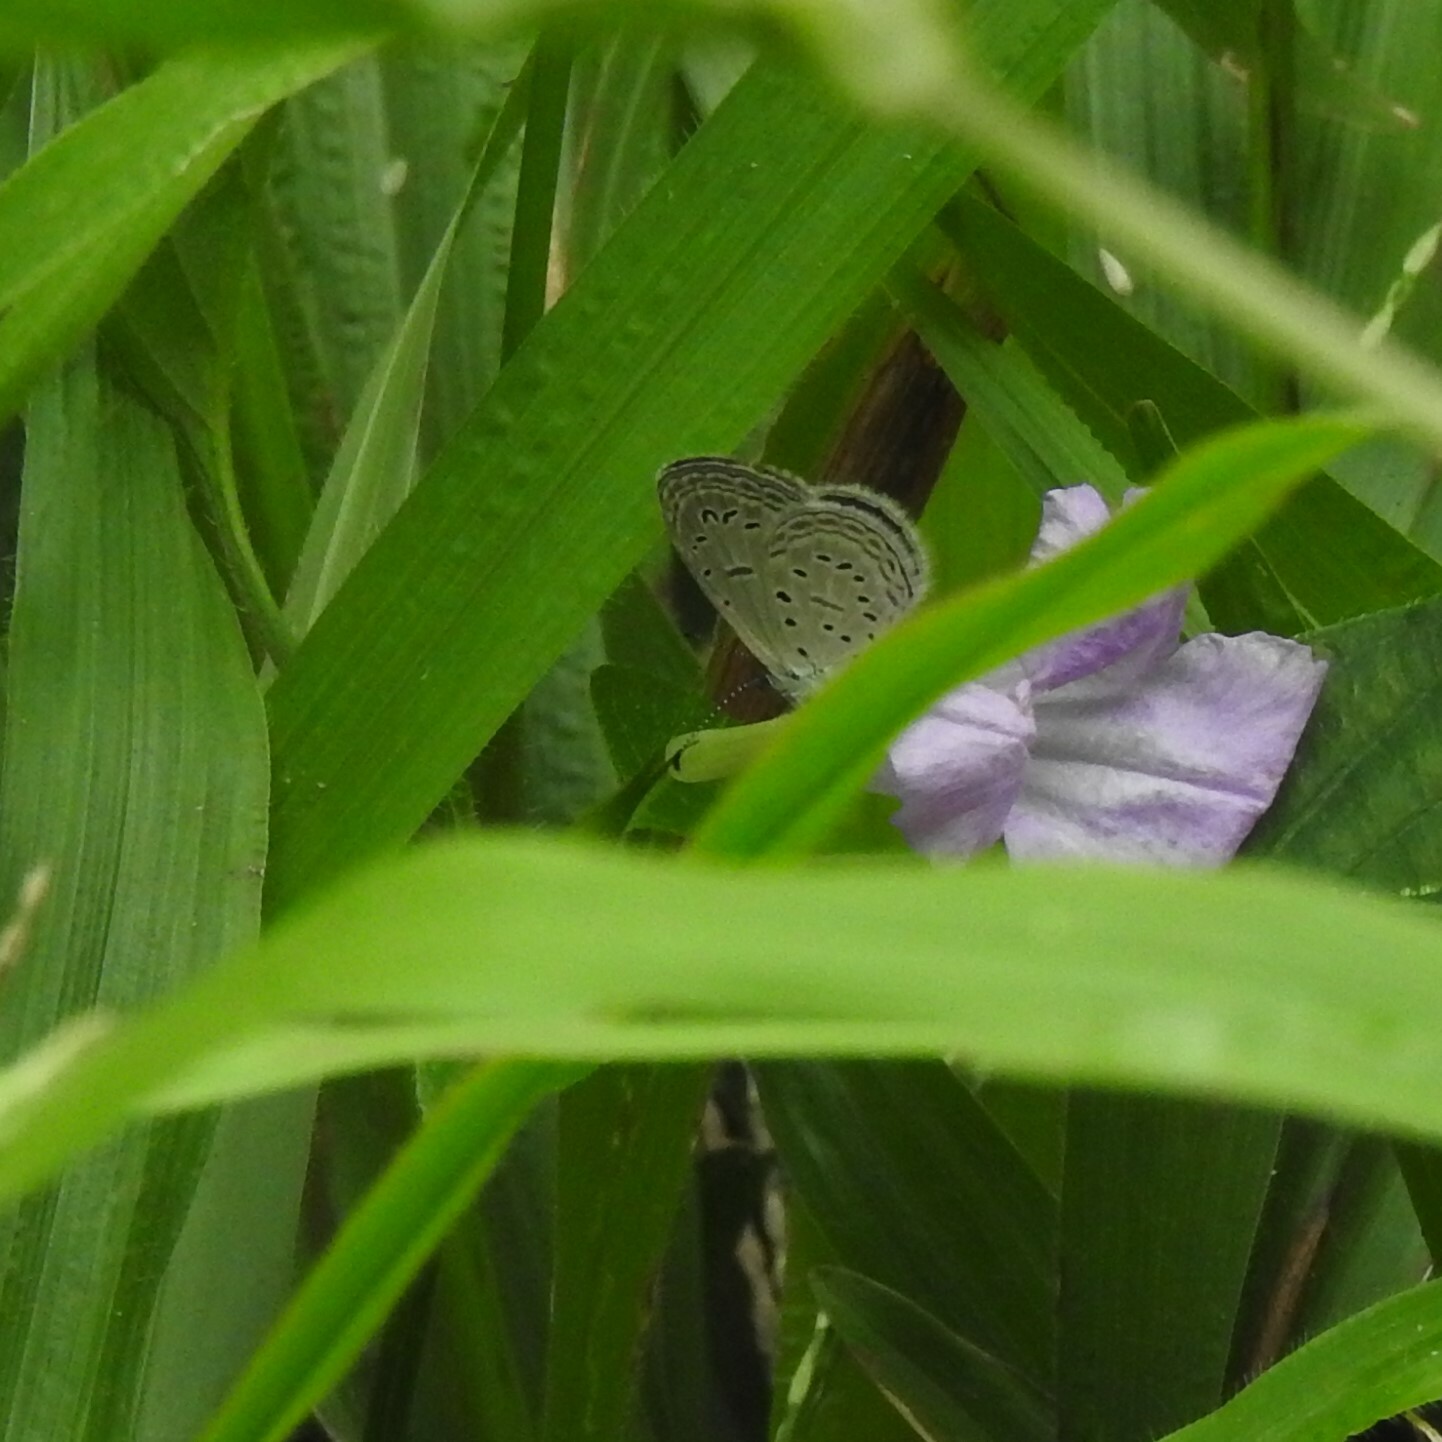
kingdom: Animalia
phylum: Arthropoda
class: Insecta
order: Lepidoptera
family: Lycaenidae
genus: Zizula
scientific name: Zizula hylax
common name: Gaika blue
